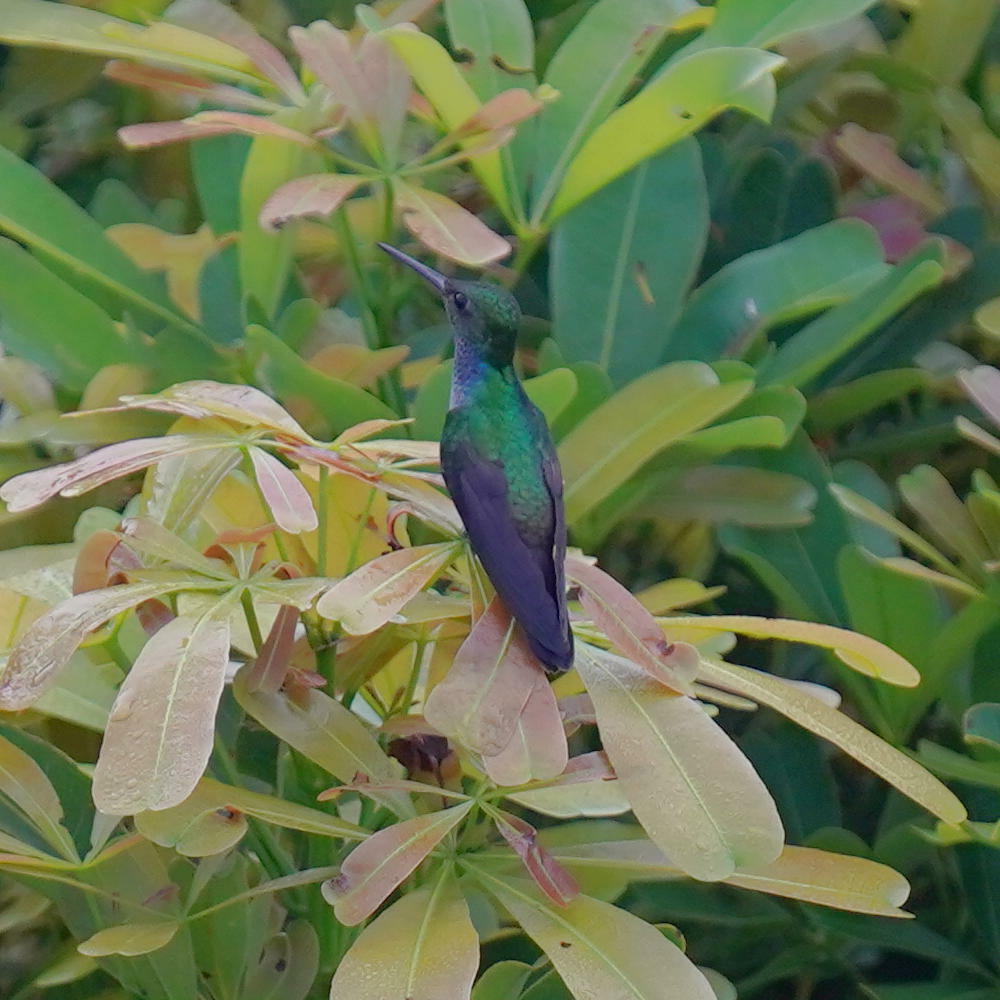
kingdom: Animalia
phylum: Chordata
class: Aves
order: Apodiformes
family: Trochilidae
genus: Polyerata
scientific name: Polyerata amabilis
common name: Blue-chested hummingbird
